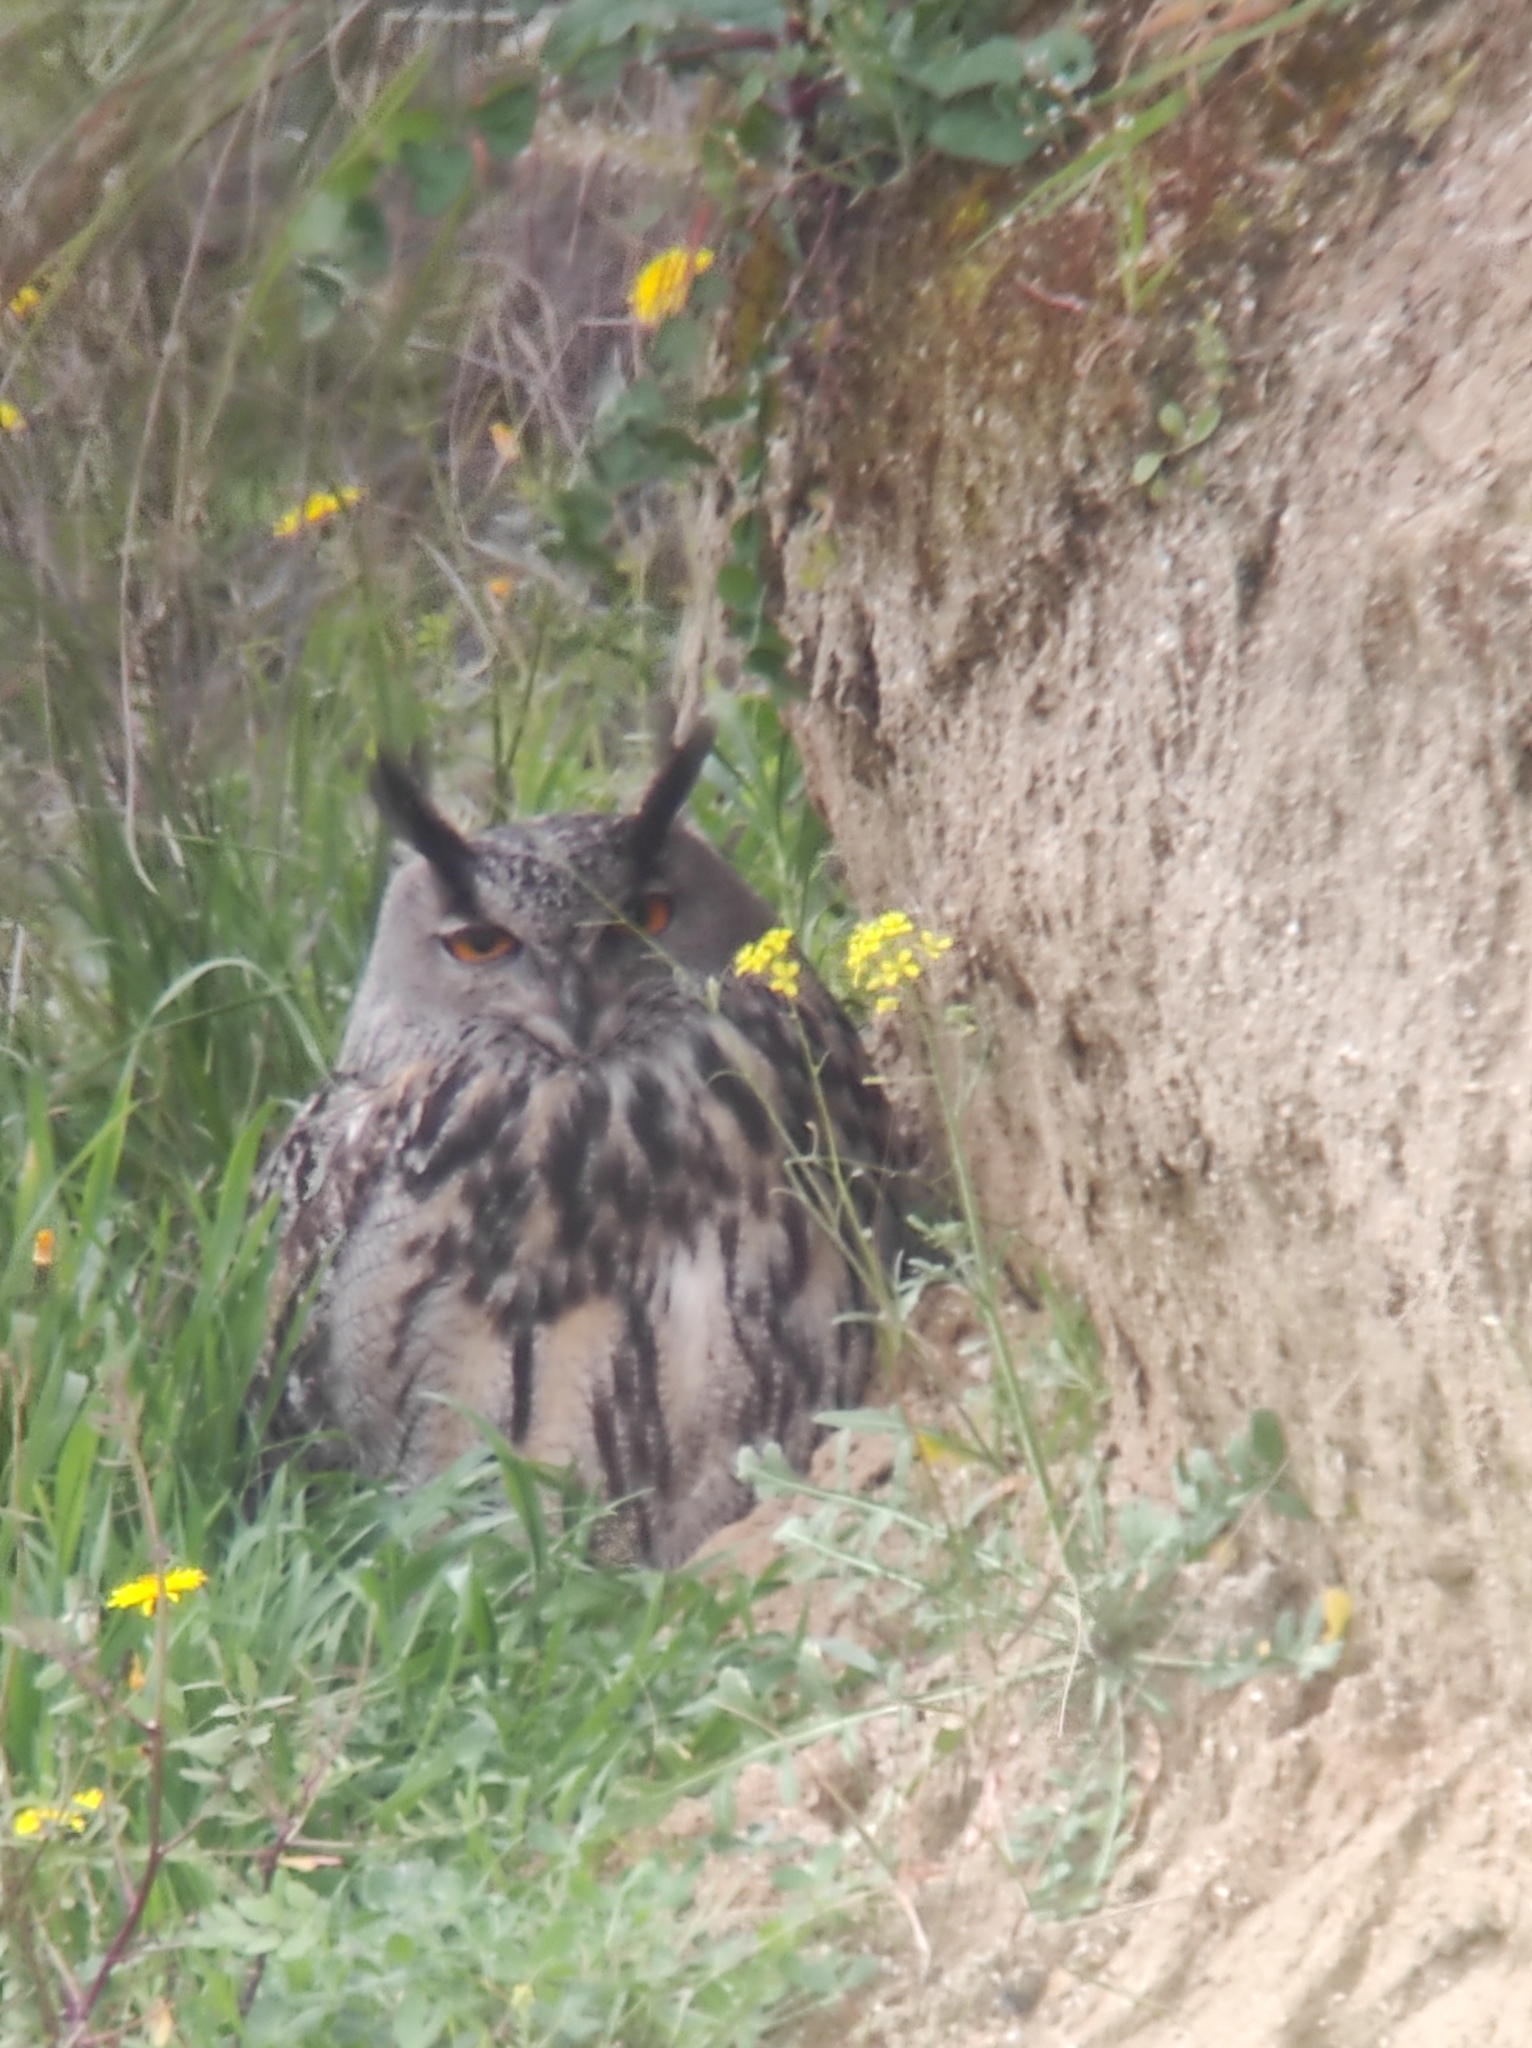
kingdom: Animalia
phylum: Chordata
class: Aves
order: Strigiformes
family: Strigidae
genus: Bubo
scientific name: Bubo bubo
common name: Eurasian eagle-owl
